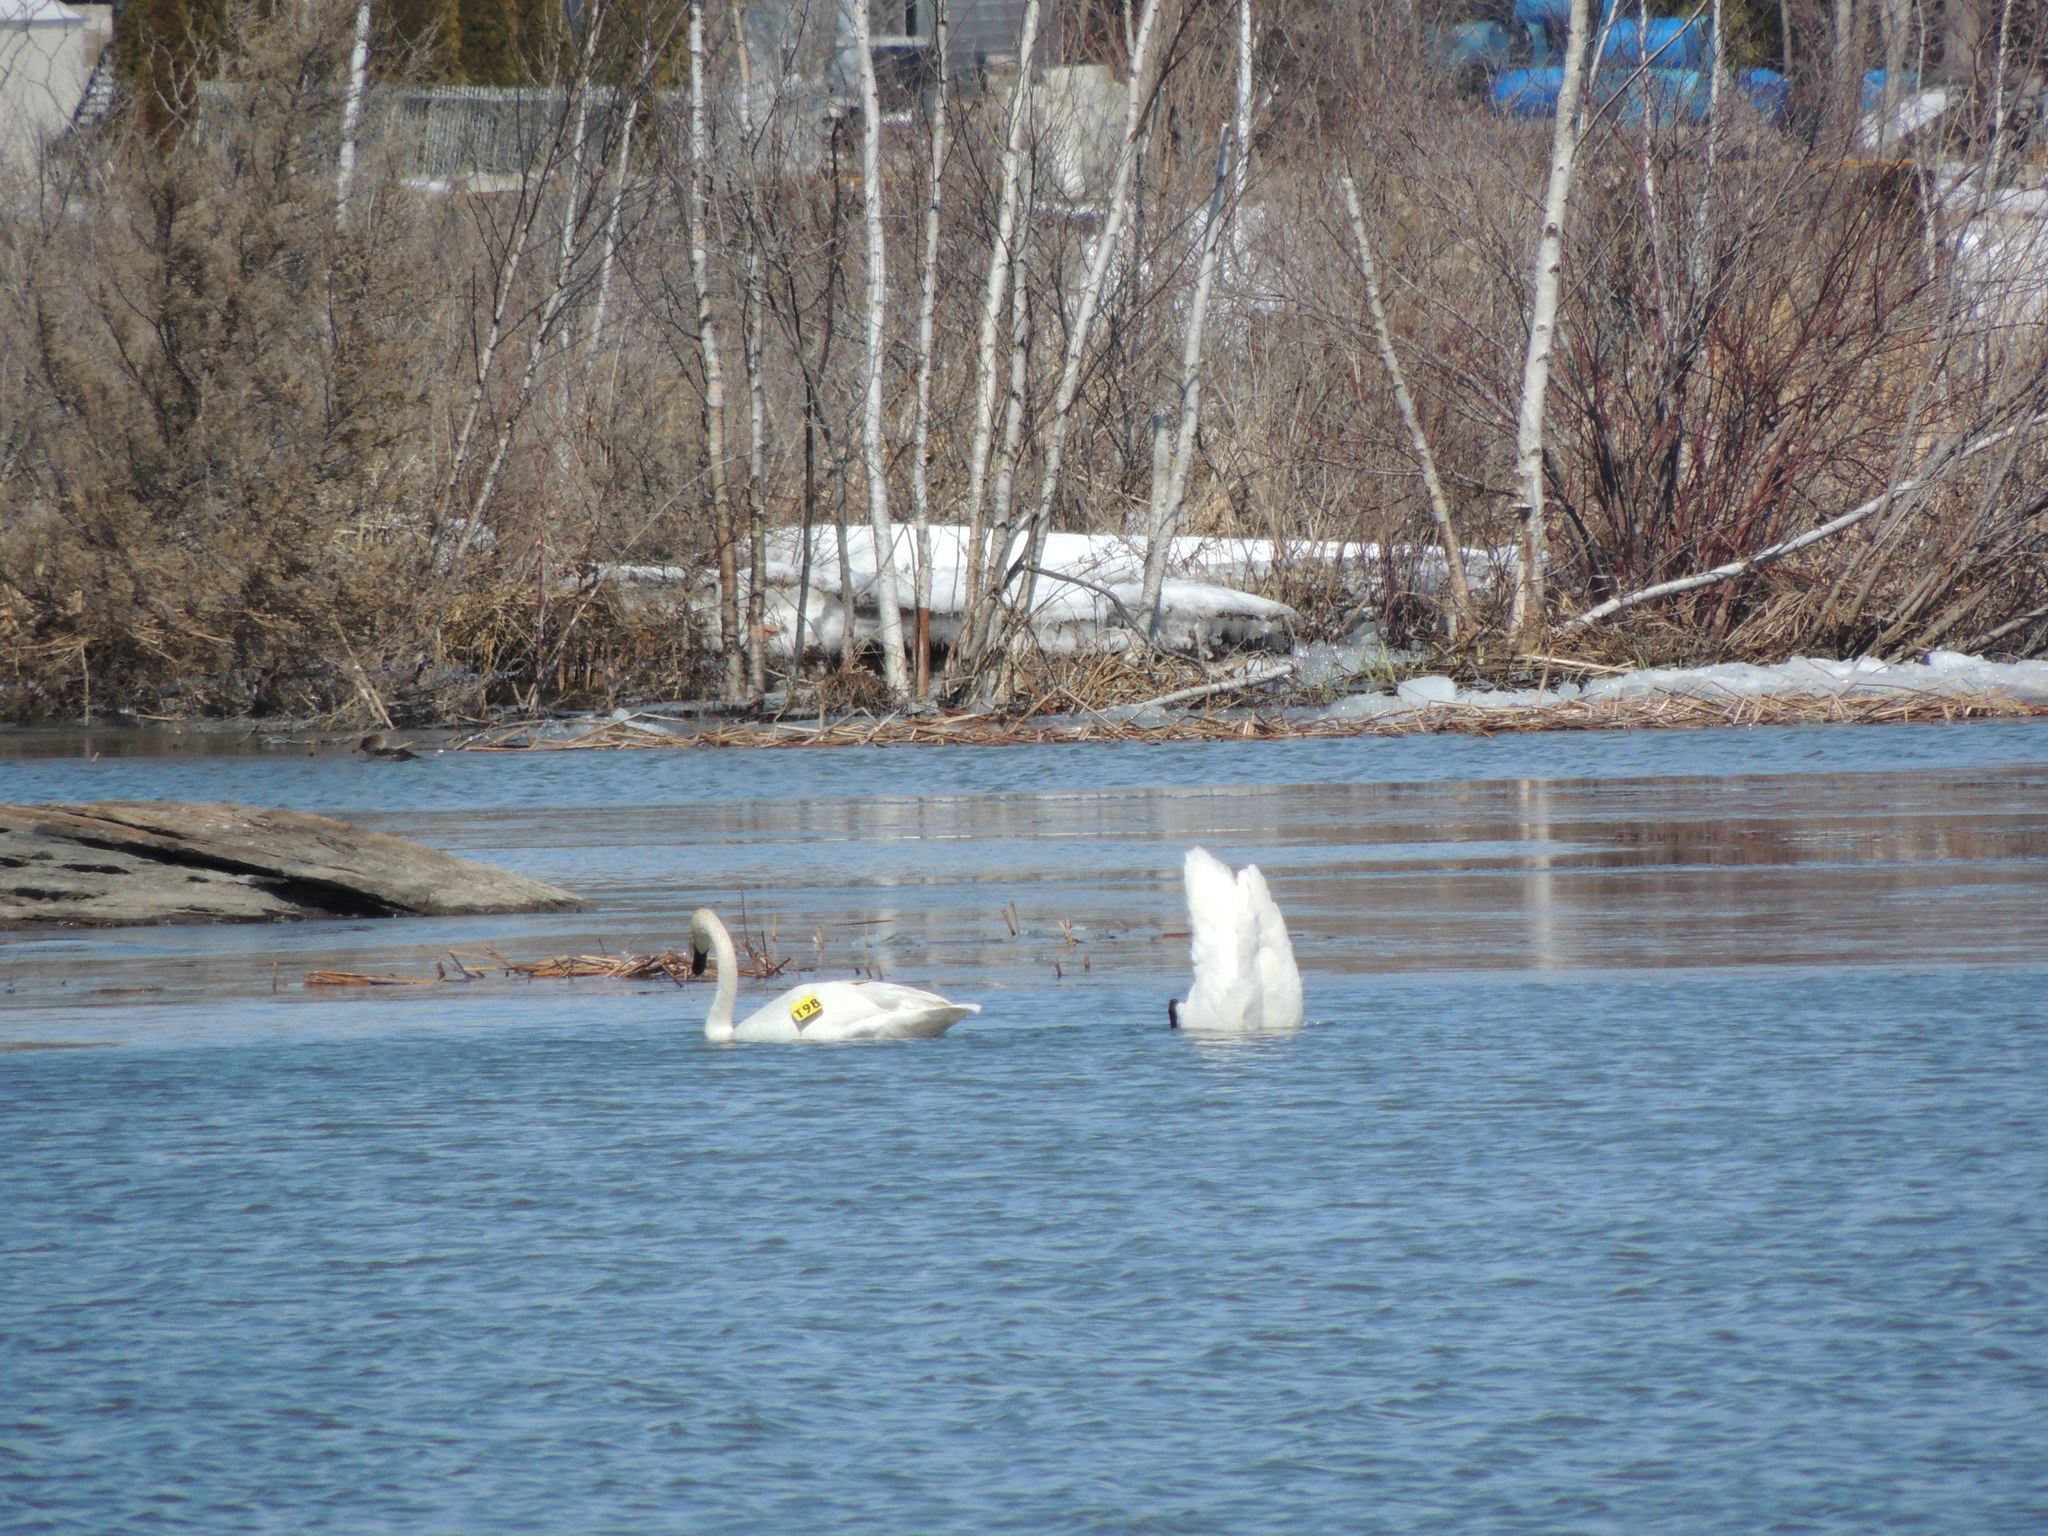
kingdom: Animalia
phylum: Chordata
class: Aves
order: Anseriformes
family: Anatidae
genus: Cygnus
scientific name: Cygnus buccinator
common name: Trumpeter swan
